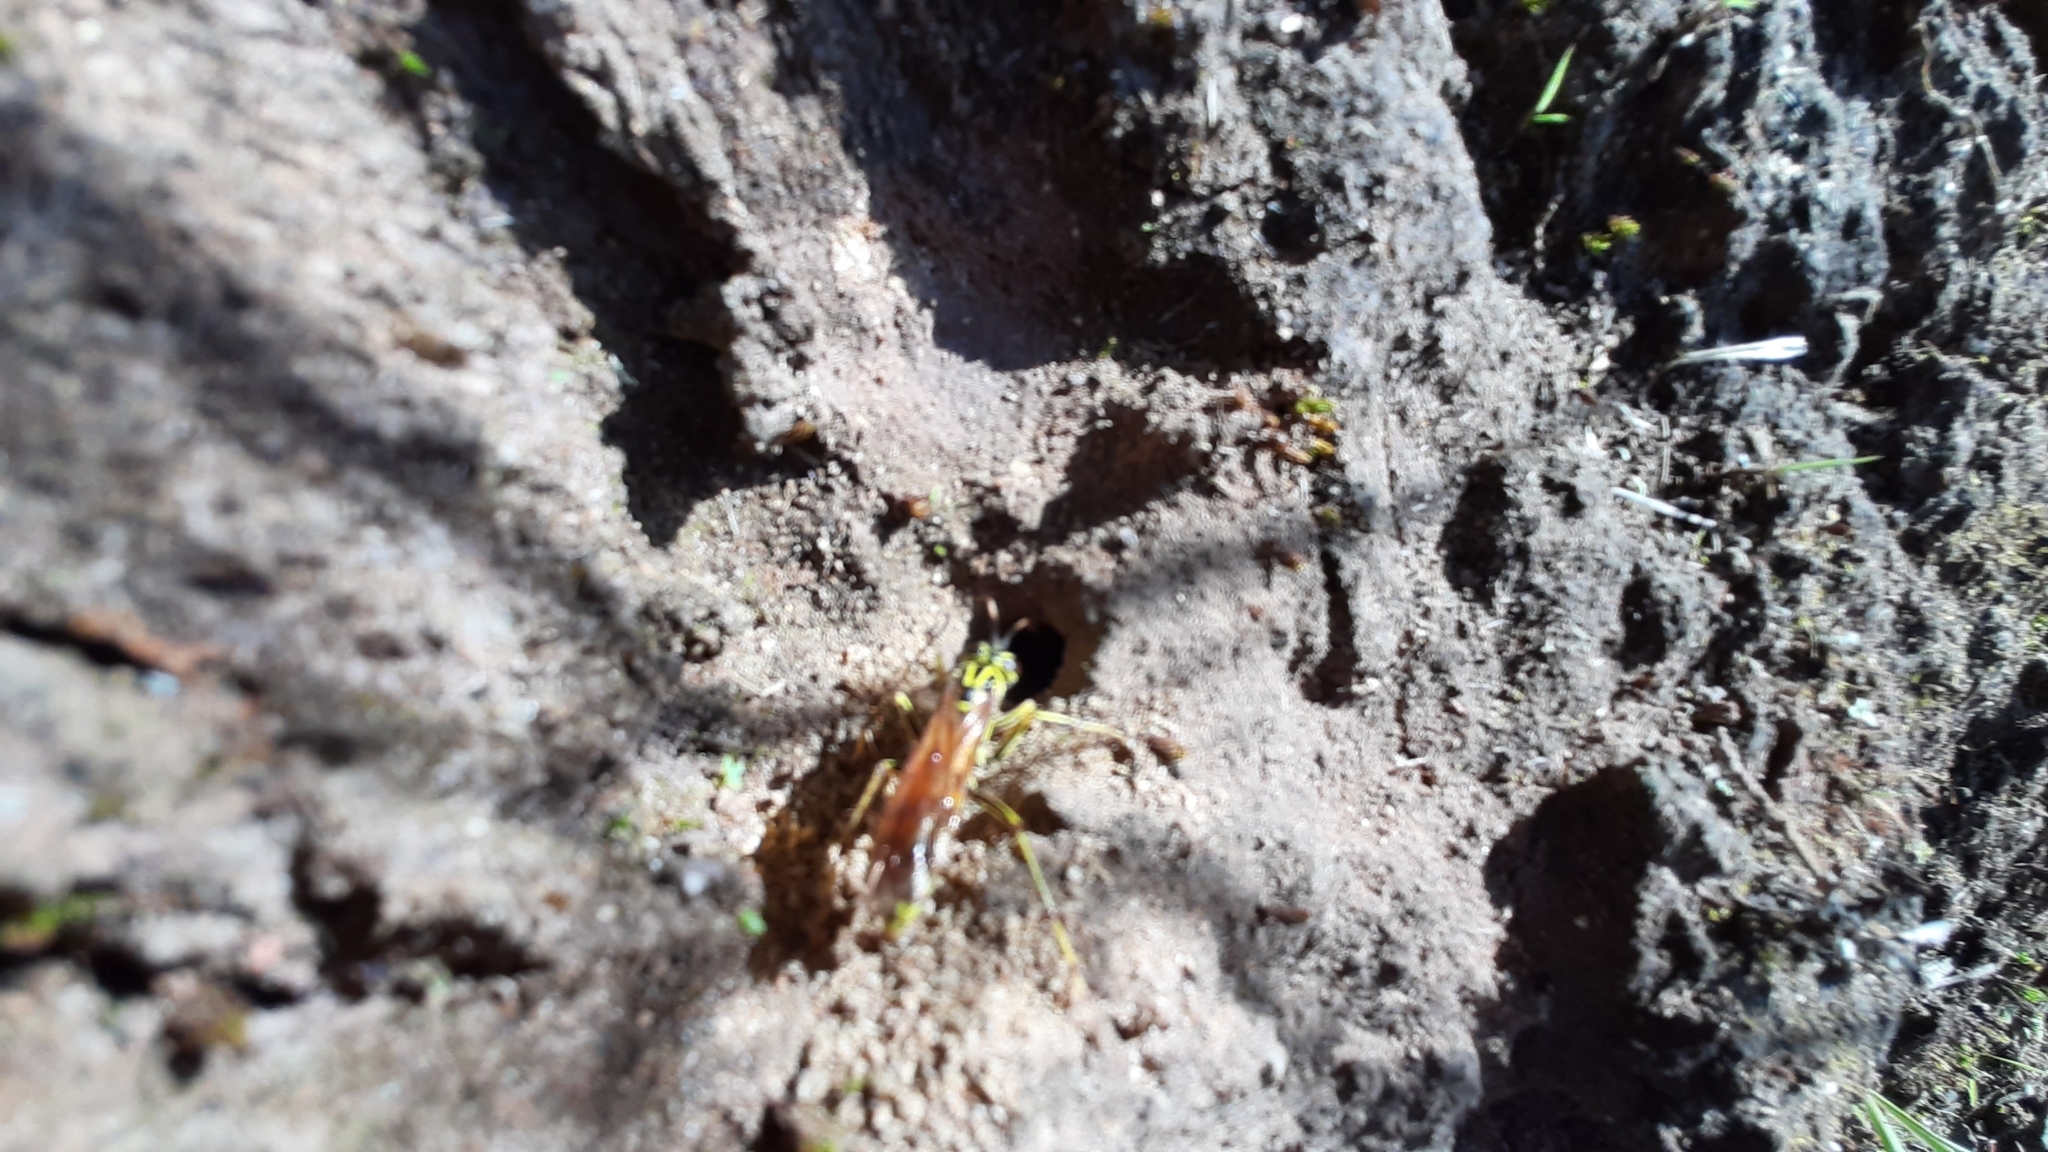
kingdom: Animalia
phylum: Arthropoda
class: Insecta
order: Hymenoptera
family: Pompilidae
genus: Poecilopompilus
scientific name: Poecilopompilus mixtus
